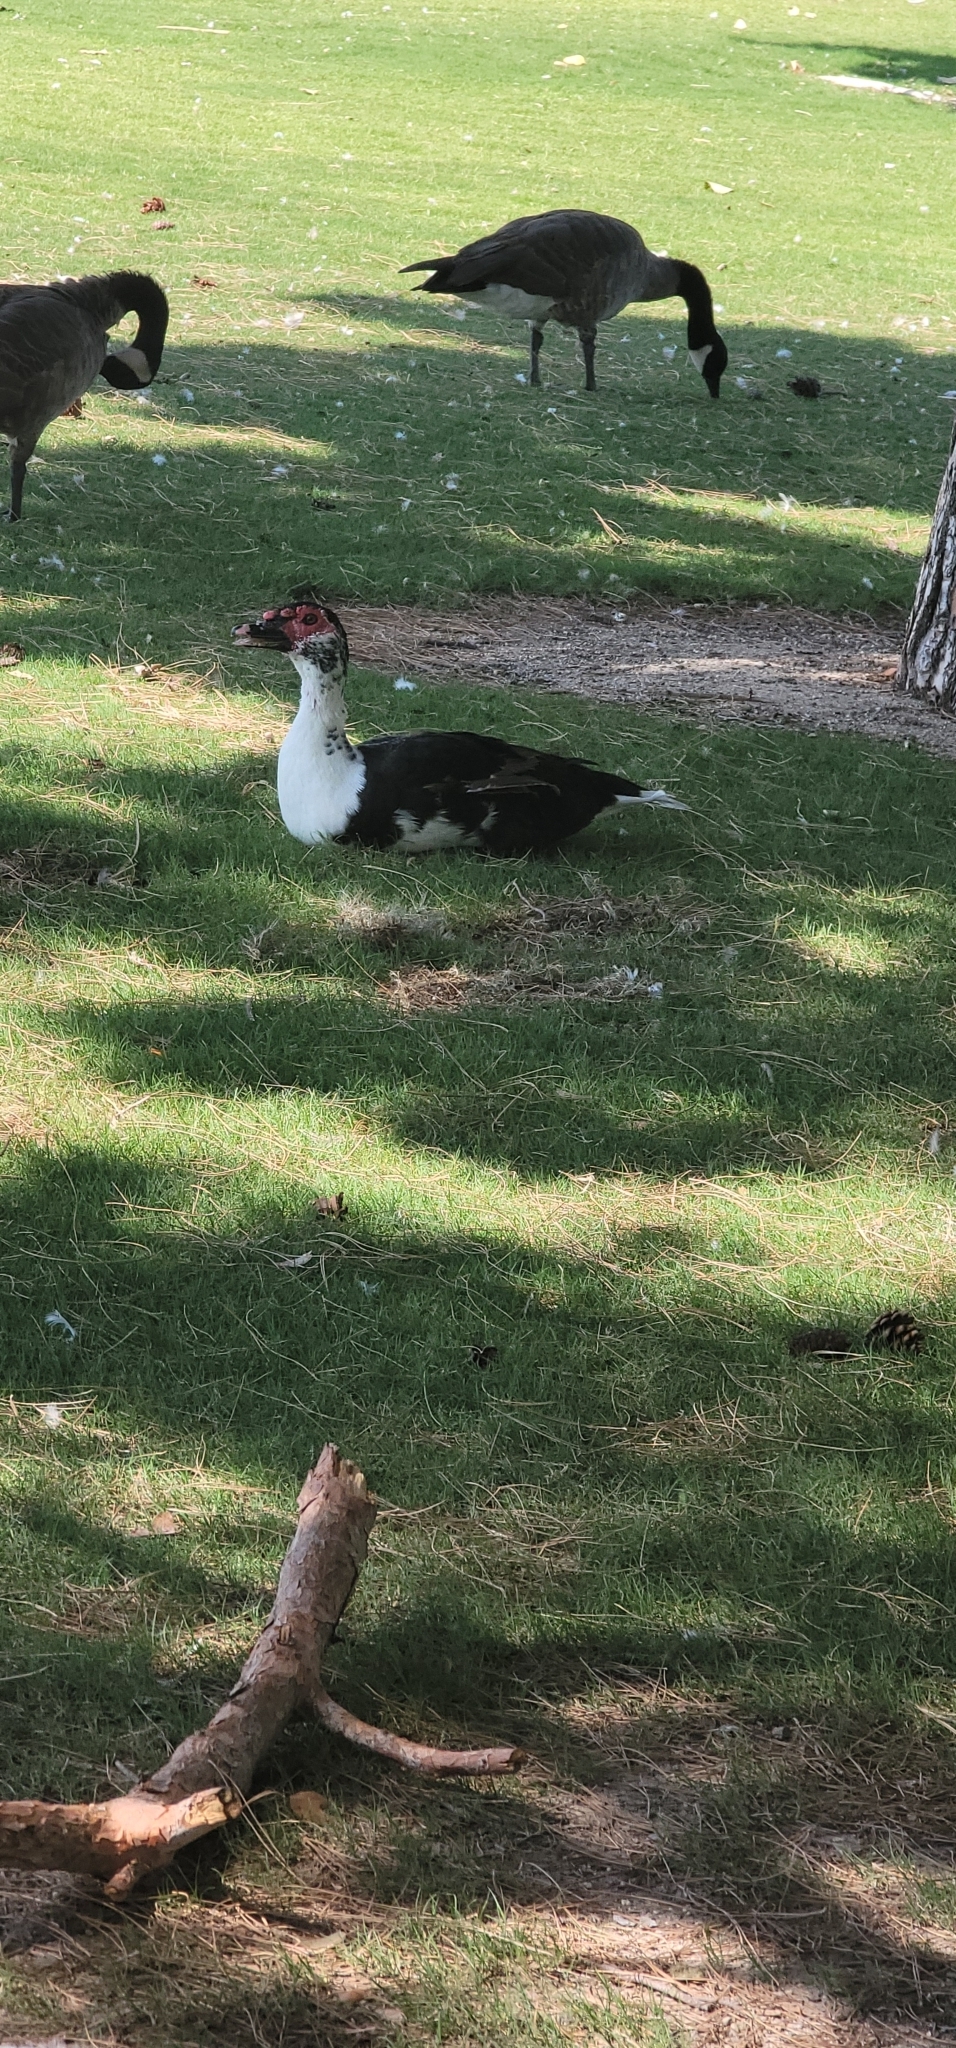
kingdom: Animalia
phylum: Chordata
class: Aves
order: Anseriformes
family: Anatidae
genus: Cairina
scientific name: Cairina moschata
